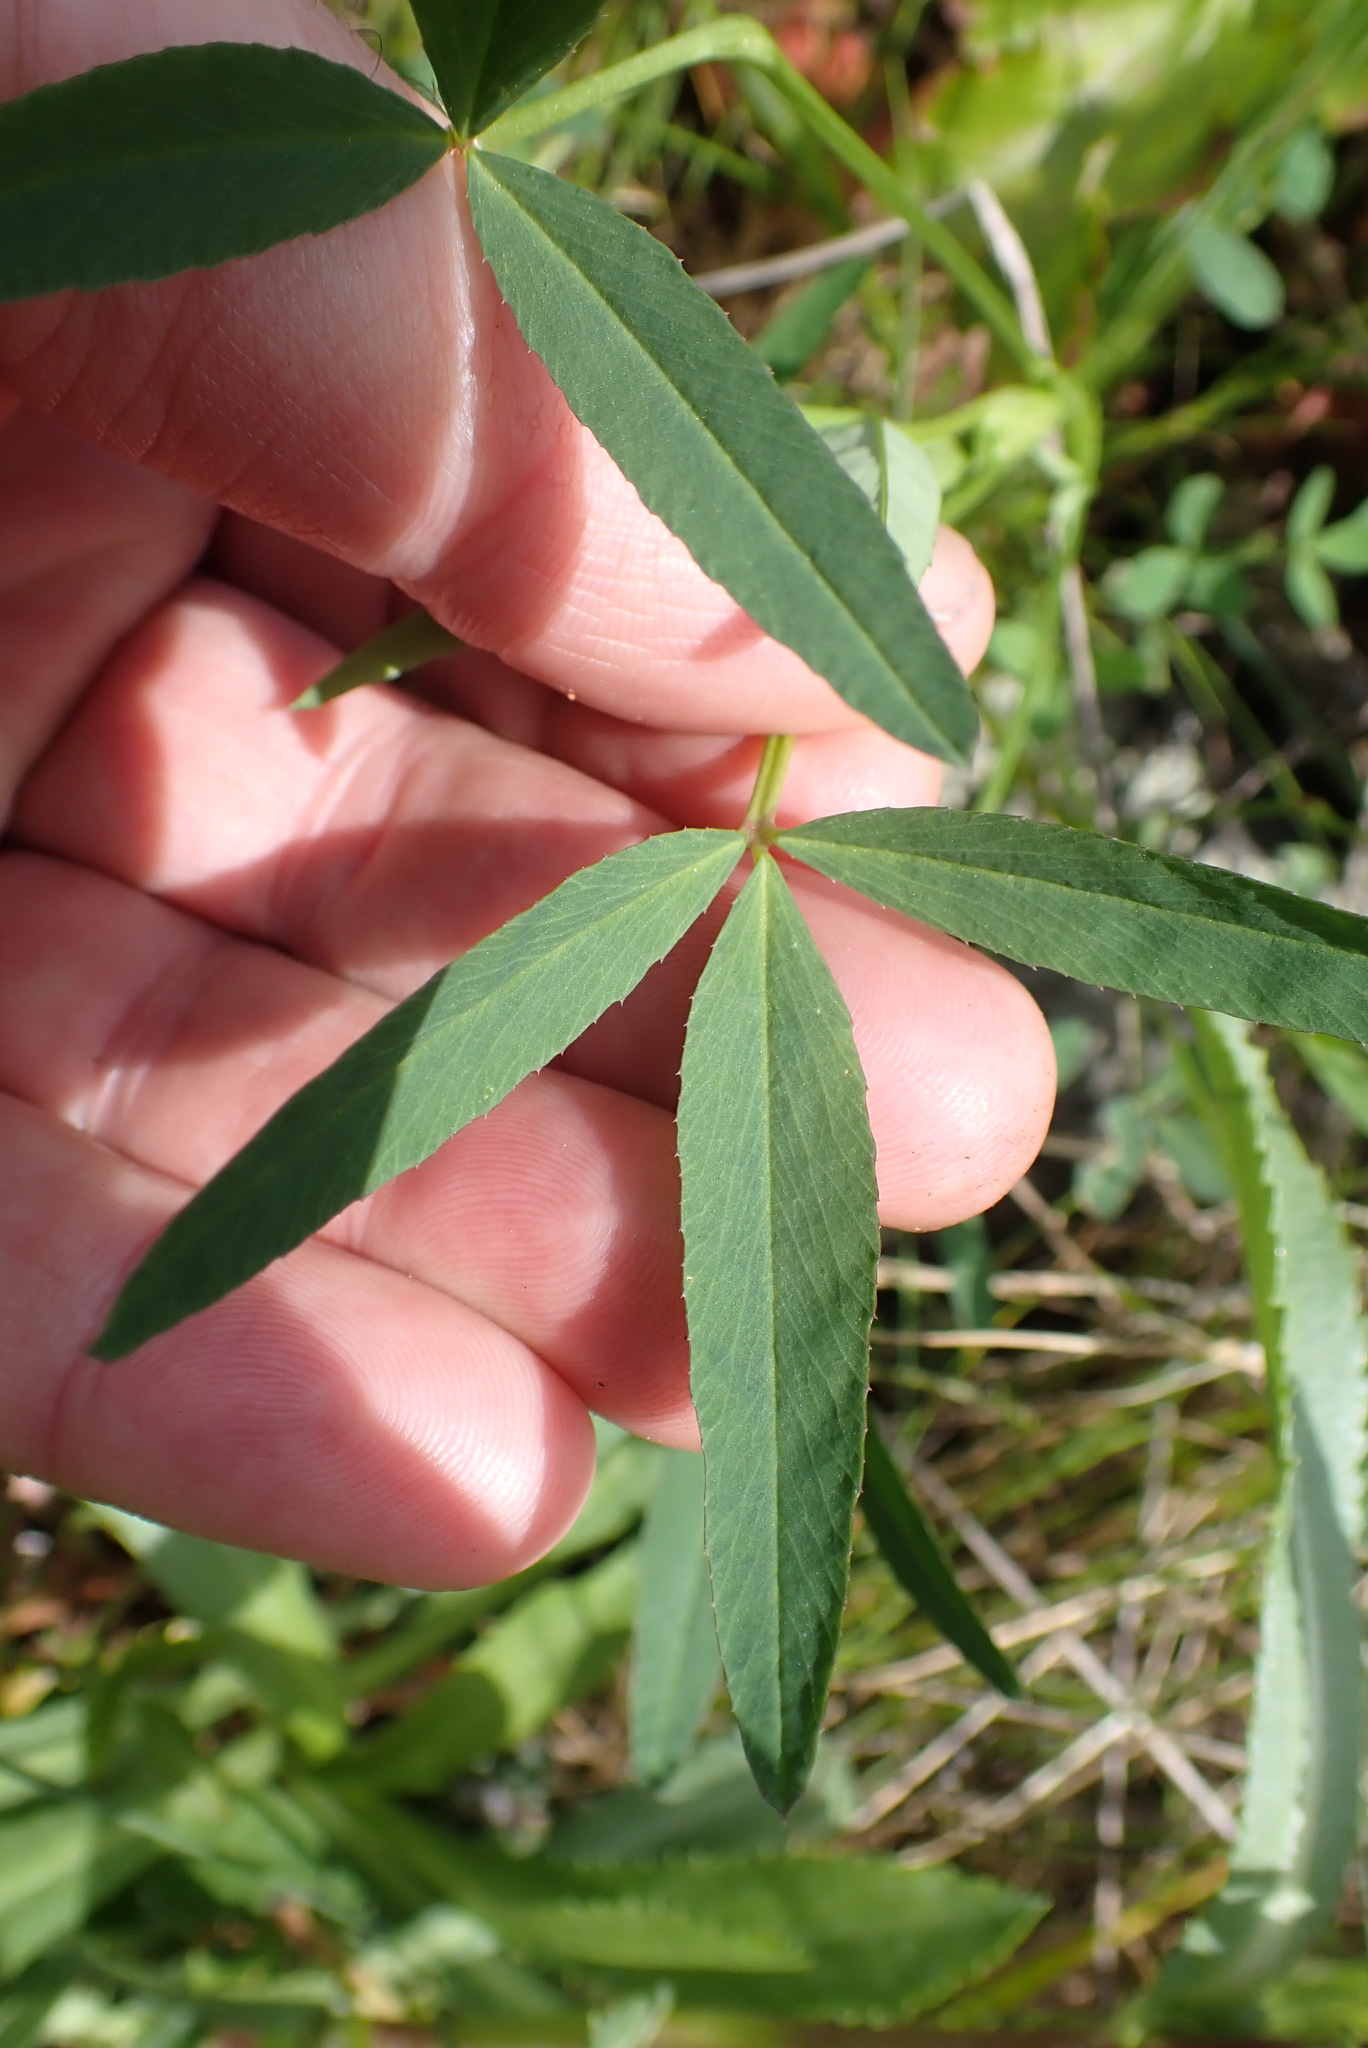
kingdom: Plantae
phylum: Tracheophyta
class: Magnoliopsida
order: Fabales
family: Fabaceae
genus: Trifolium
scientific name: Trifolium willdenovii
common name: Tomcat clover
